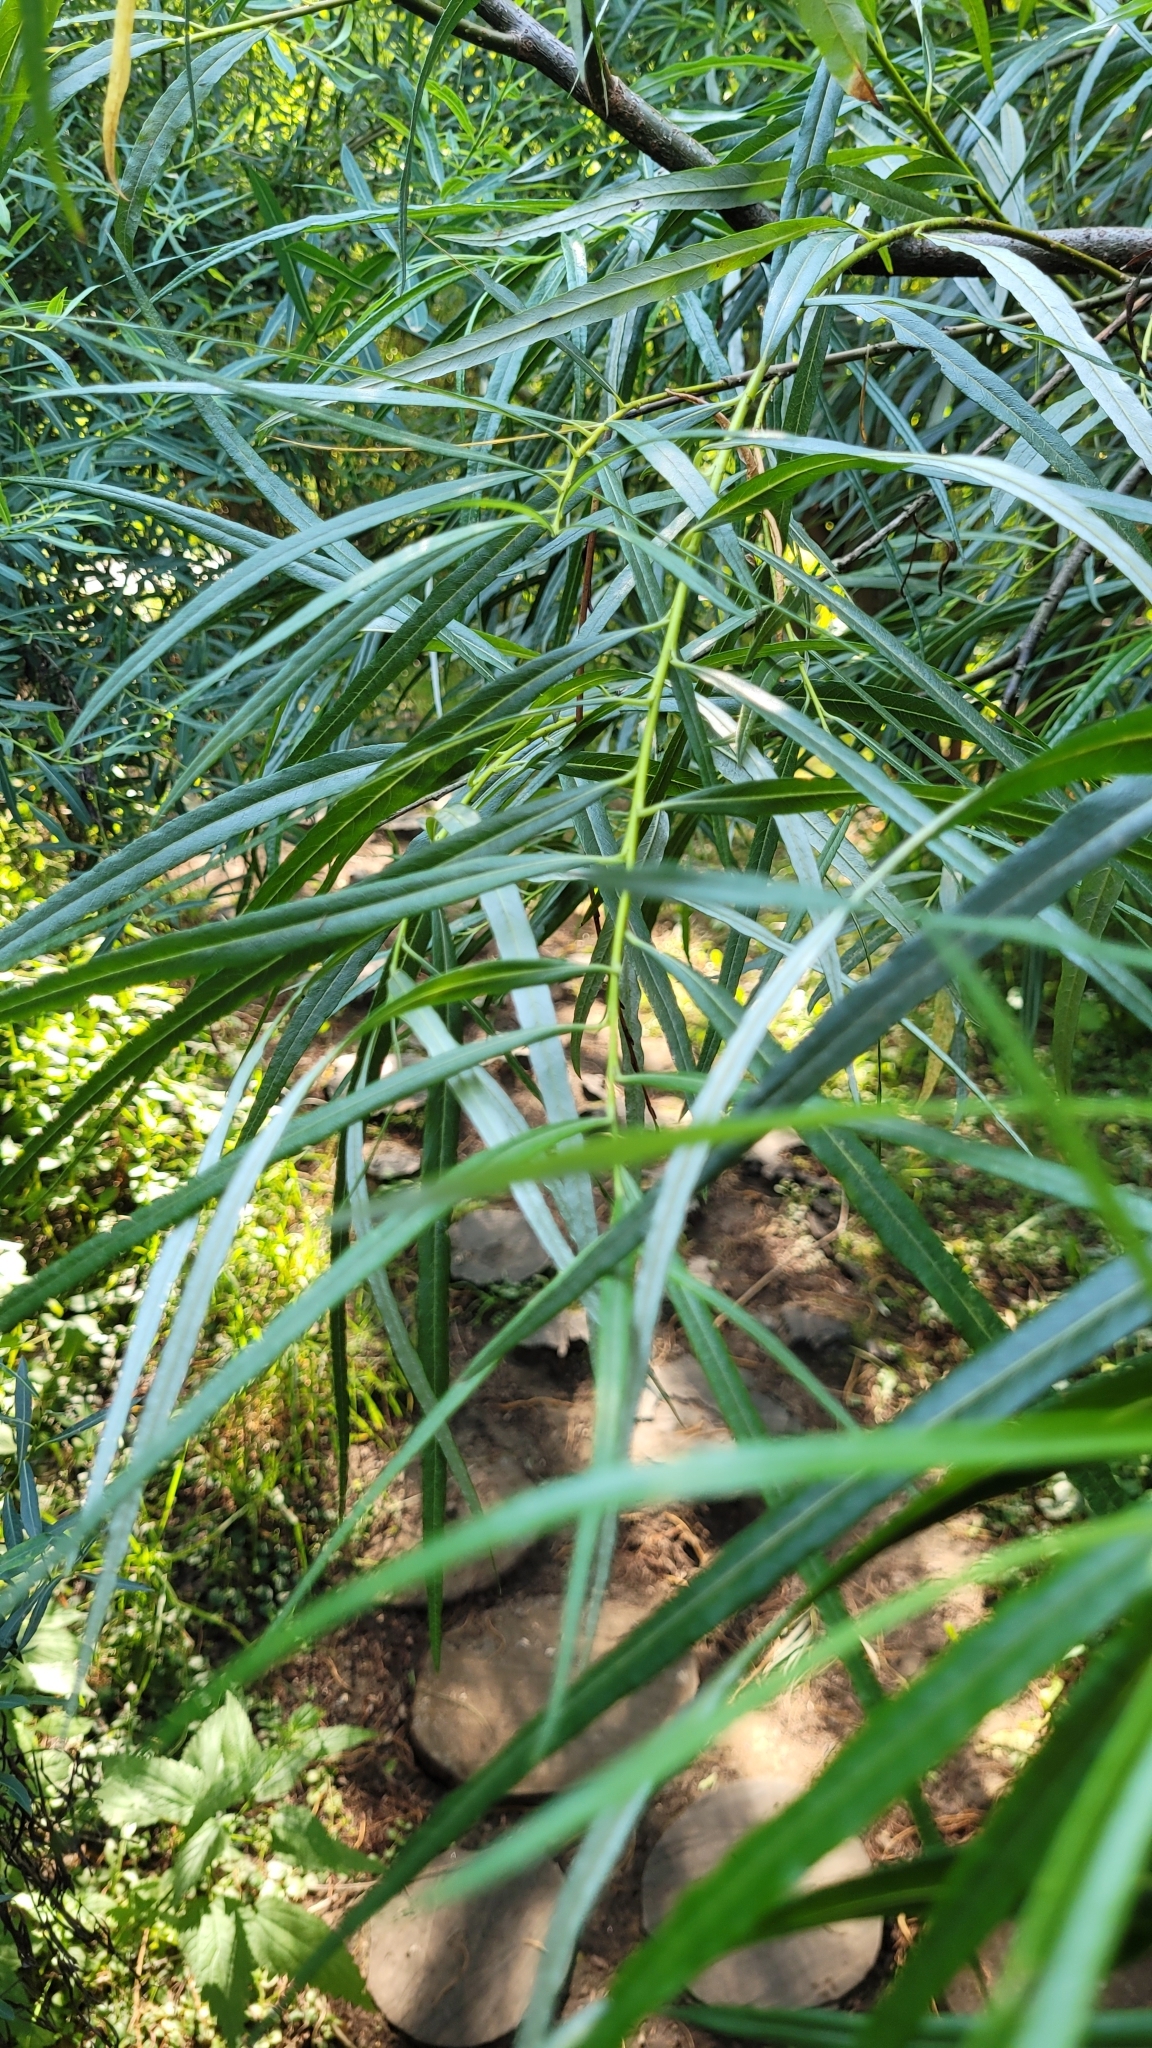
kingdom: Plantae
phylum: Tracheophyta
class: Magnoliopsida
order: Malpighiales
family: Salicaceae
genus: Salix
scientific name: Salix viminalis
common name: Osier
